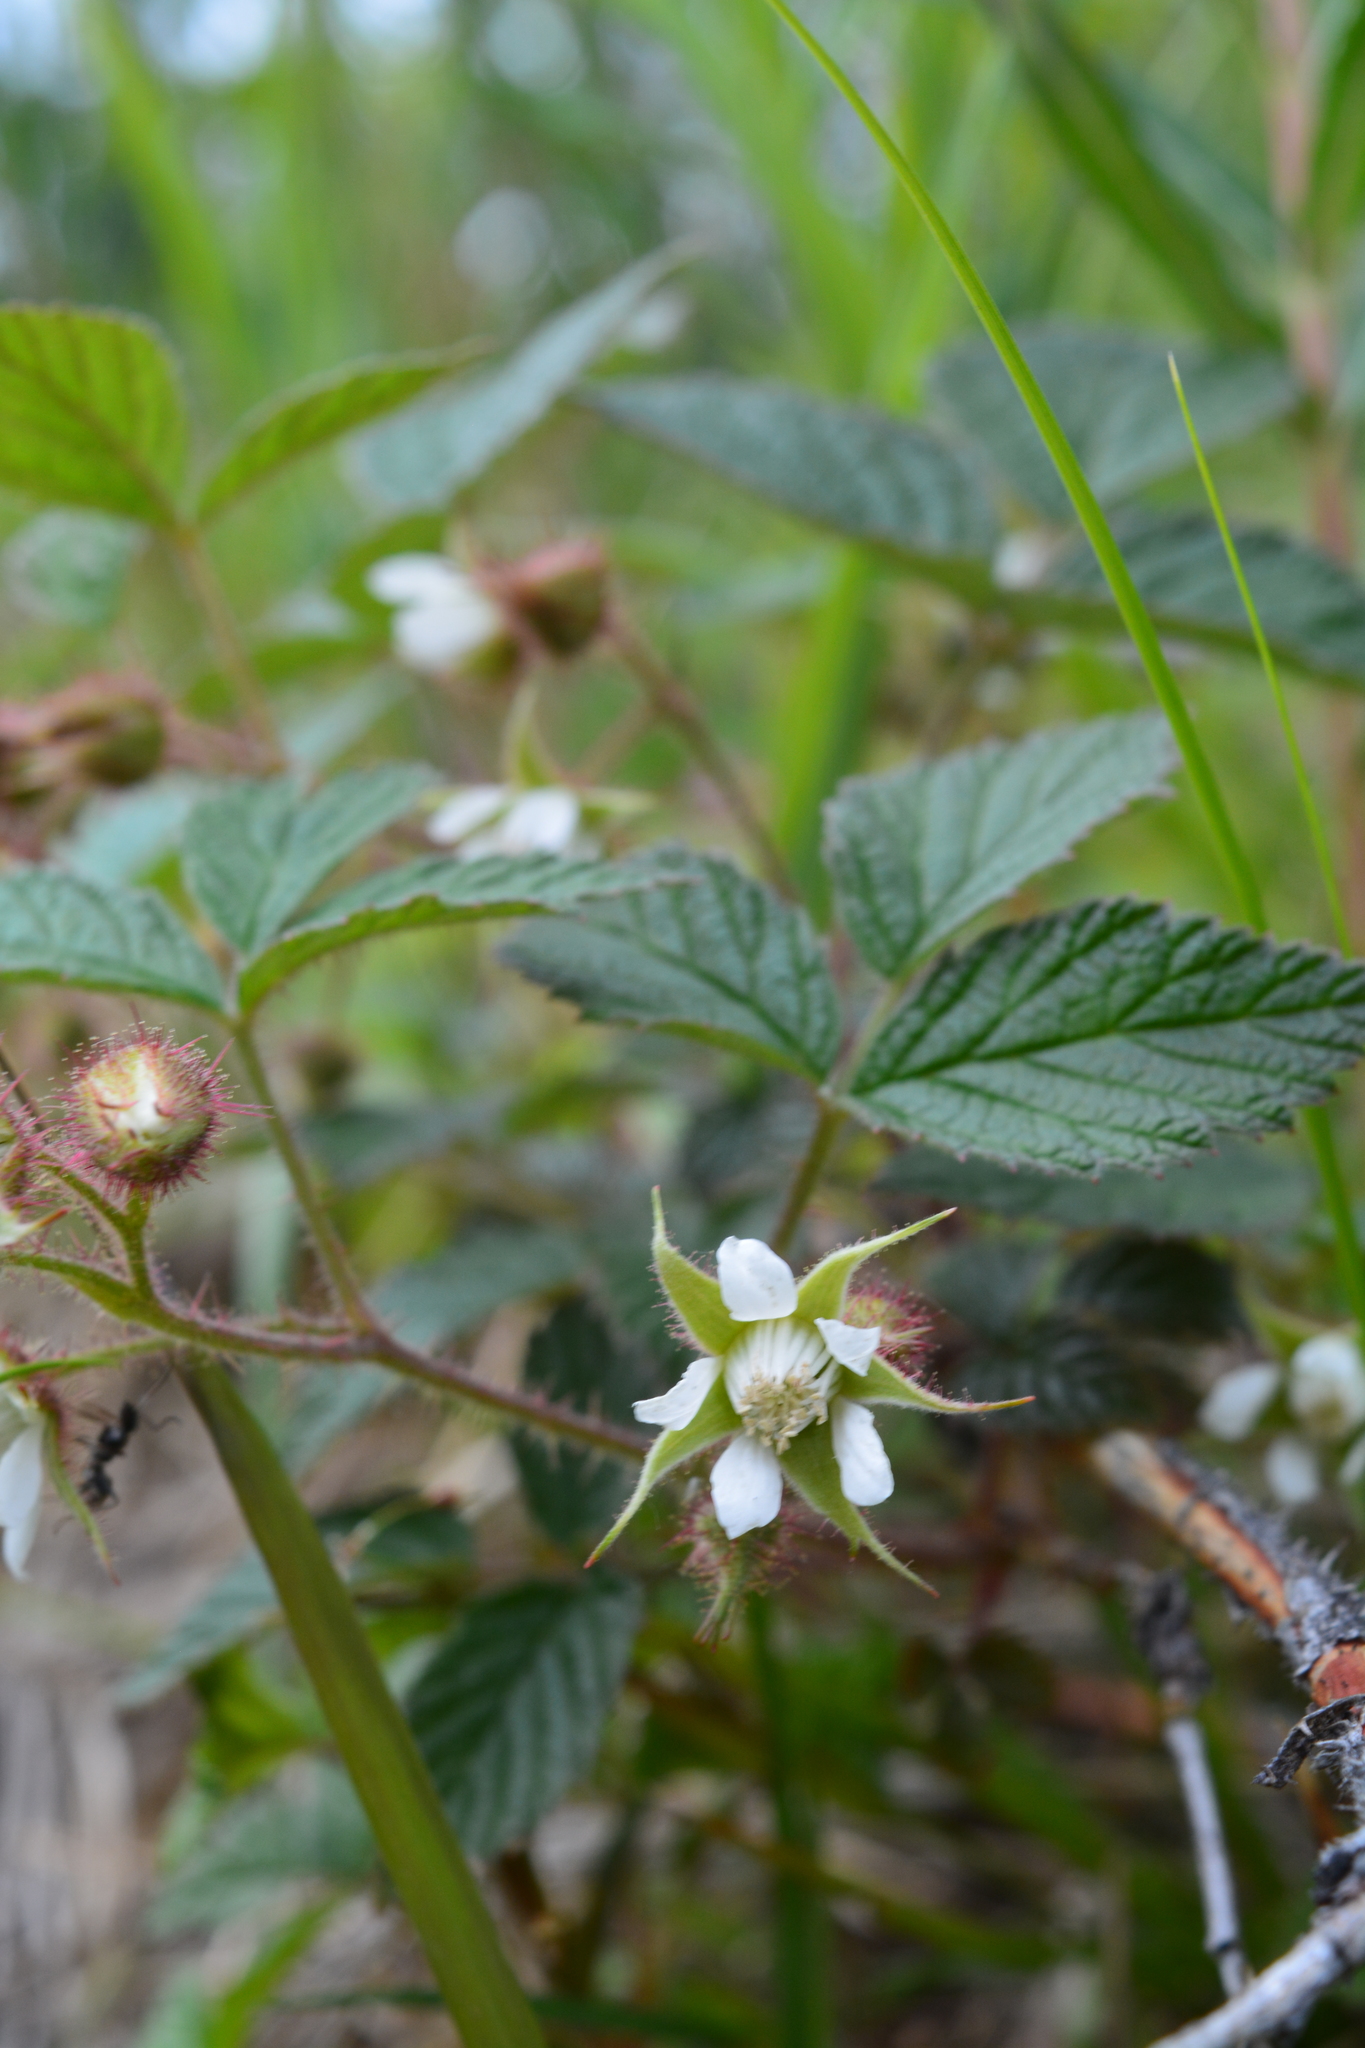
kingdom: Plantae
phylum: Tracheophyta
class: Magnoliopsida
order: Rosales
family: Rosaceae
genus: Rubus
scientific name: Rubus sachalinensis
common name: Red raspberry
